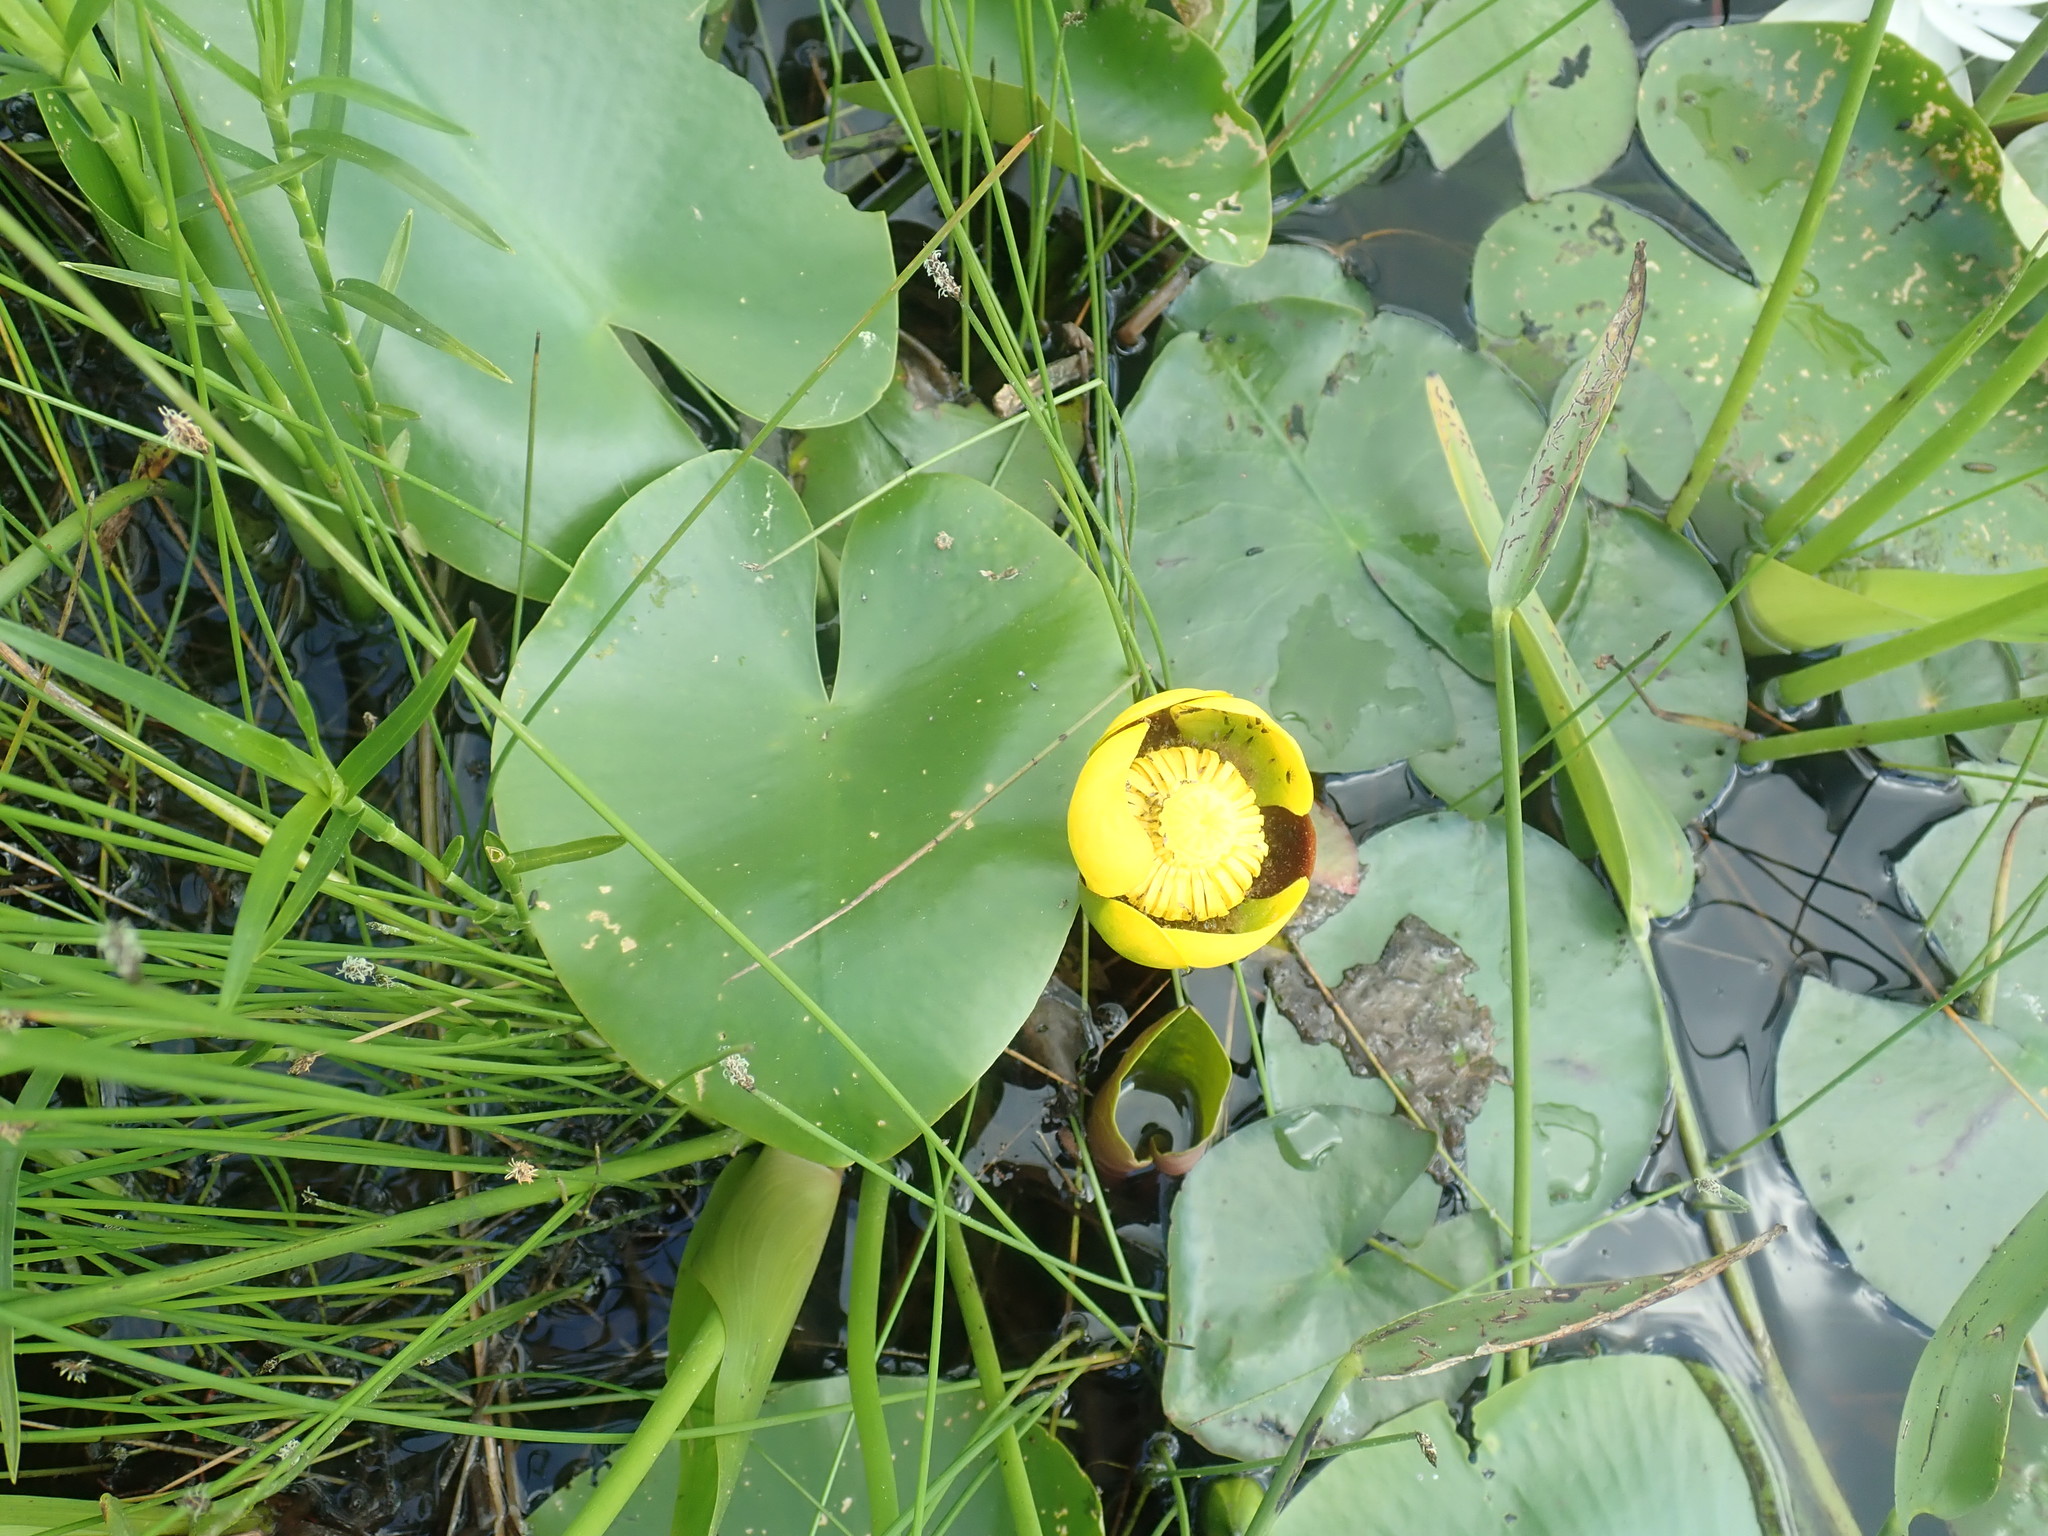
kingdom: Plantae
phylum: Tracheophyta
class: Magnoliopsida
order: Nymphaeales
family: Nymphaeaceae
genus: Nuphar
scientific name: Nuphar variegata
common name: Beaver-root
